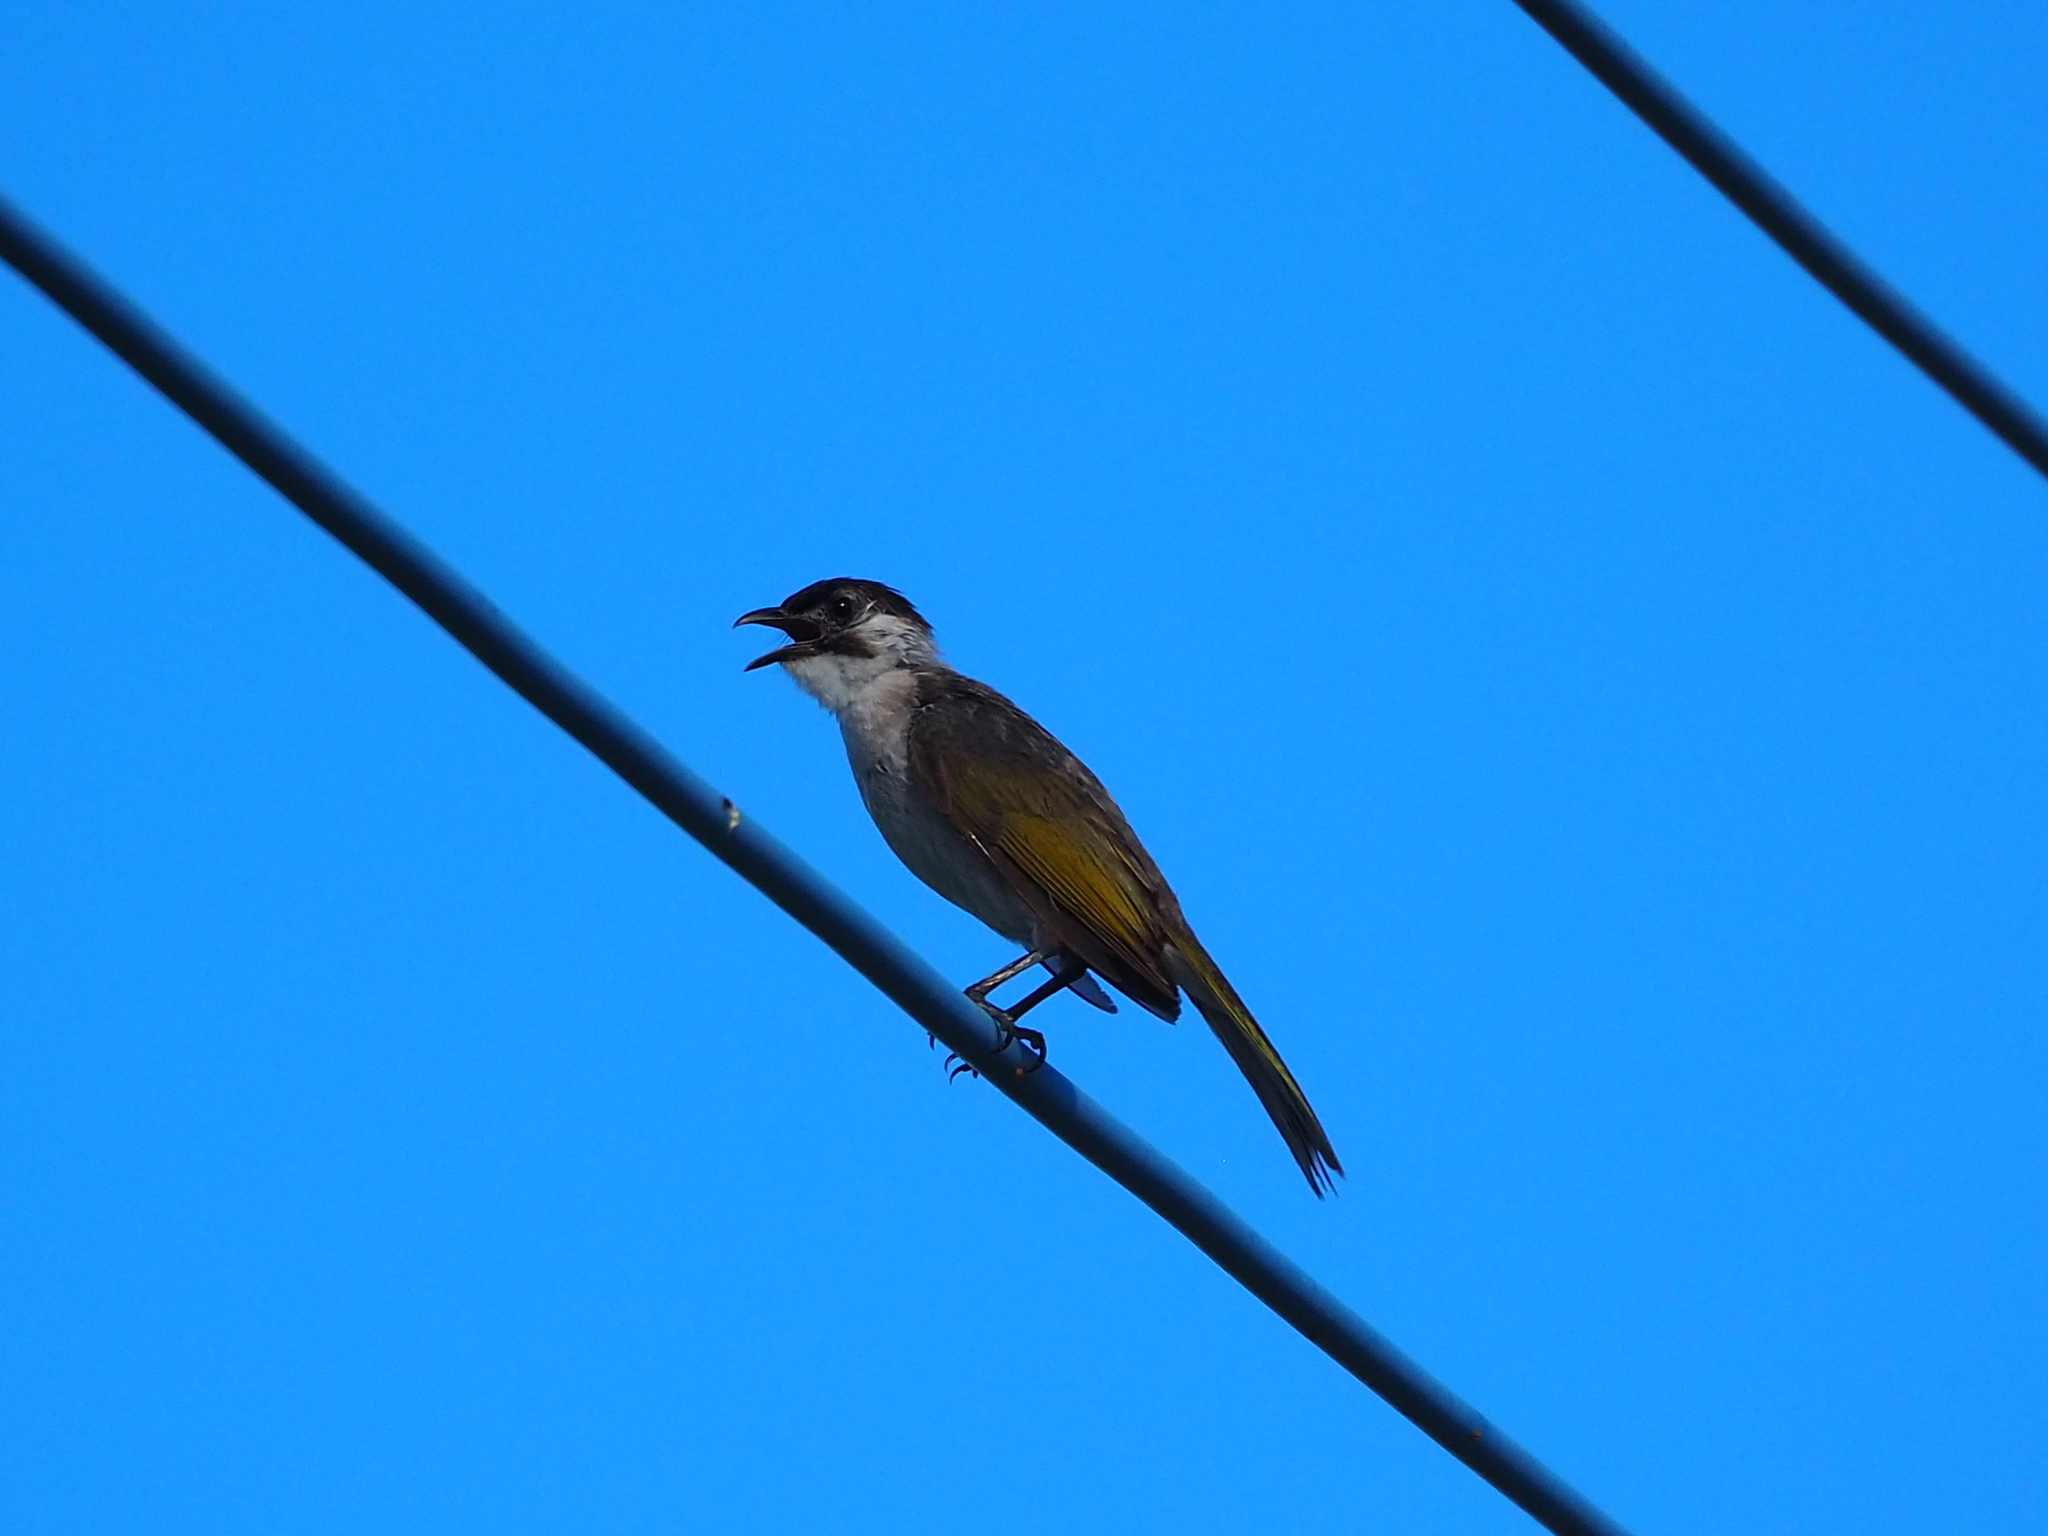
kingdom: Animalia
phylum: Chordata
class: Aves
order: Passeriformes
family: Pycnonotidae
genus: Pycnonotus
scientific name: Pycnonotus taivanus
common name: Styan's bulbul
